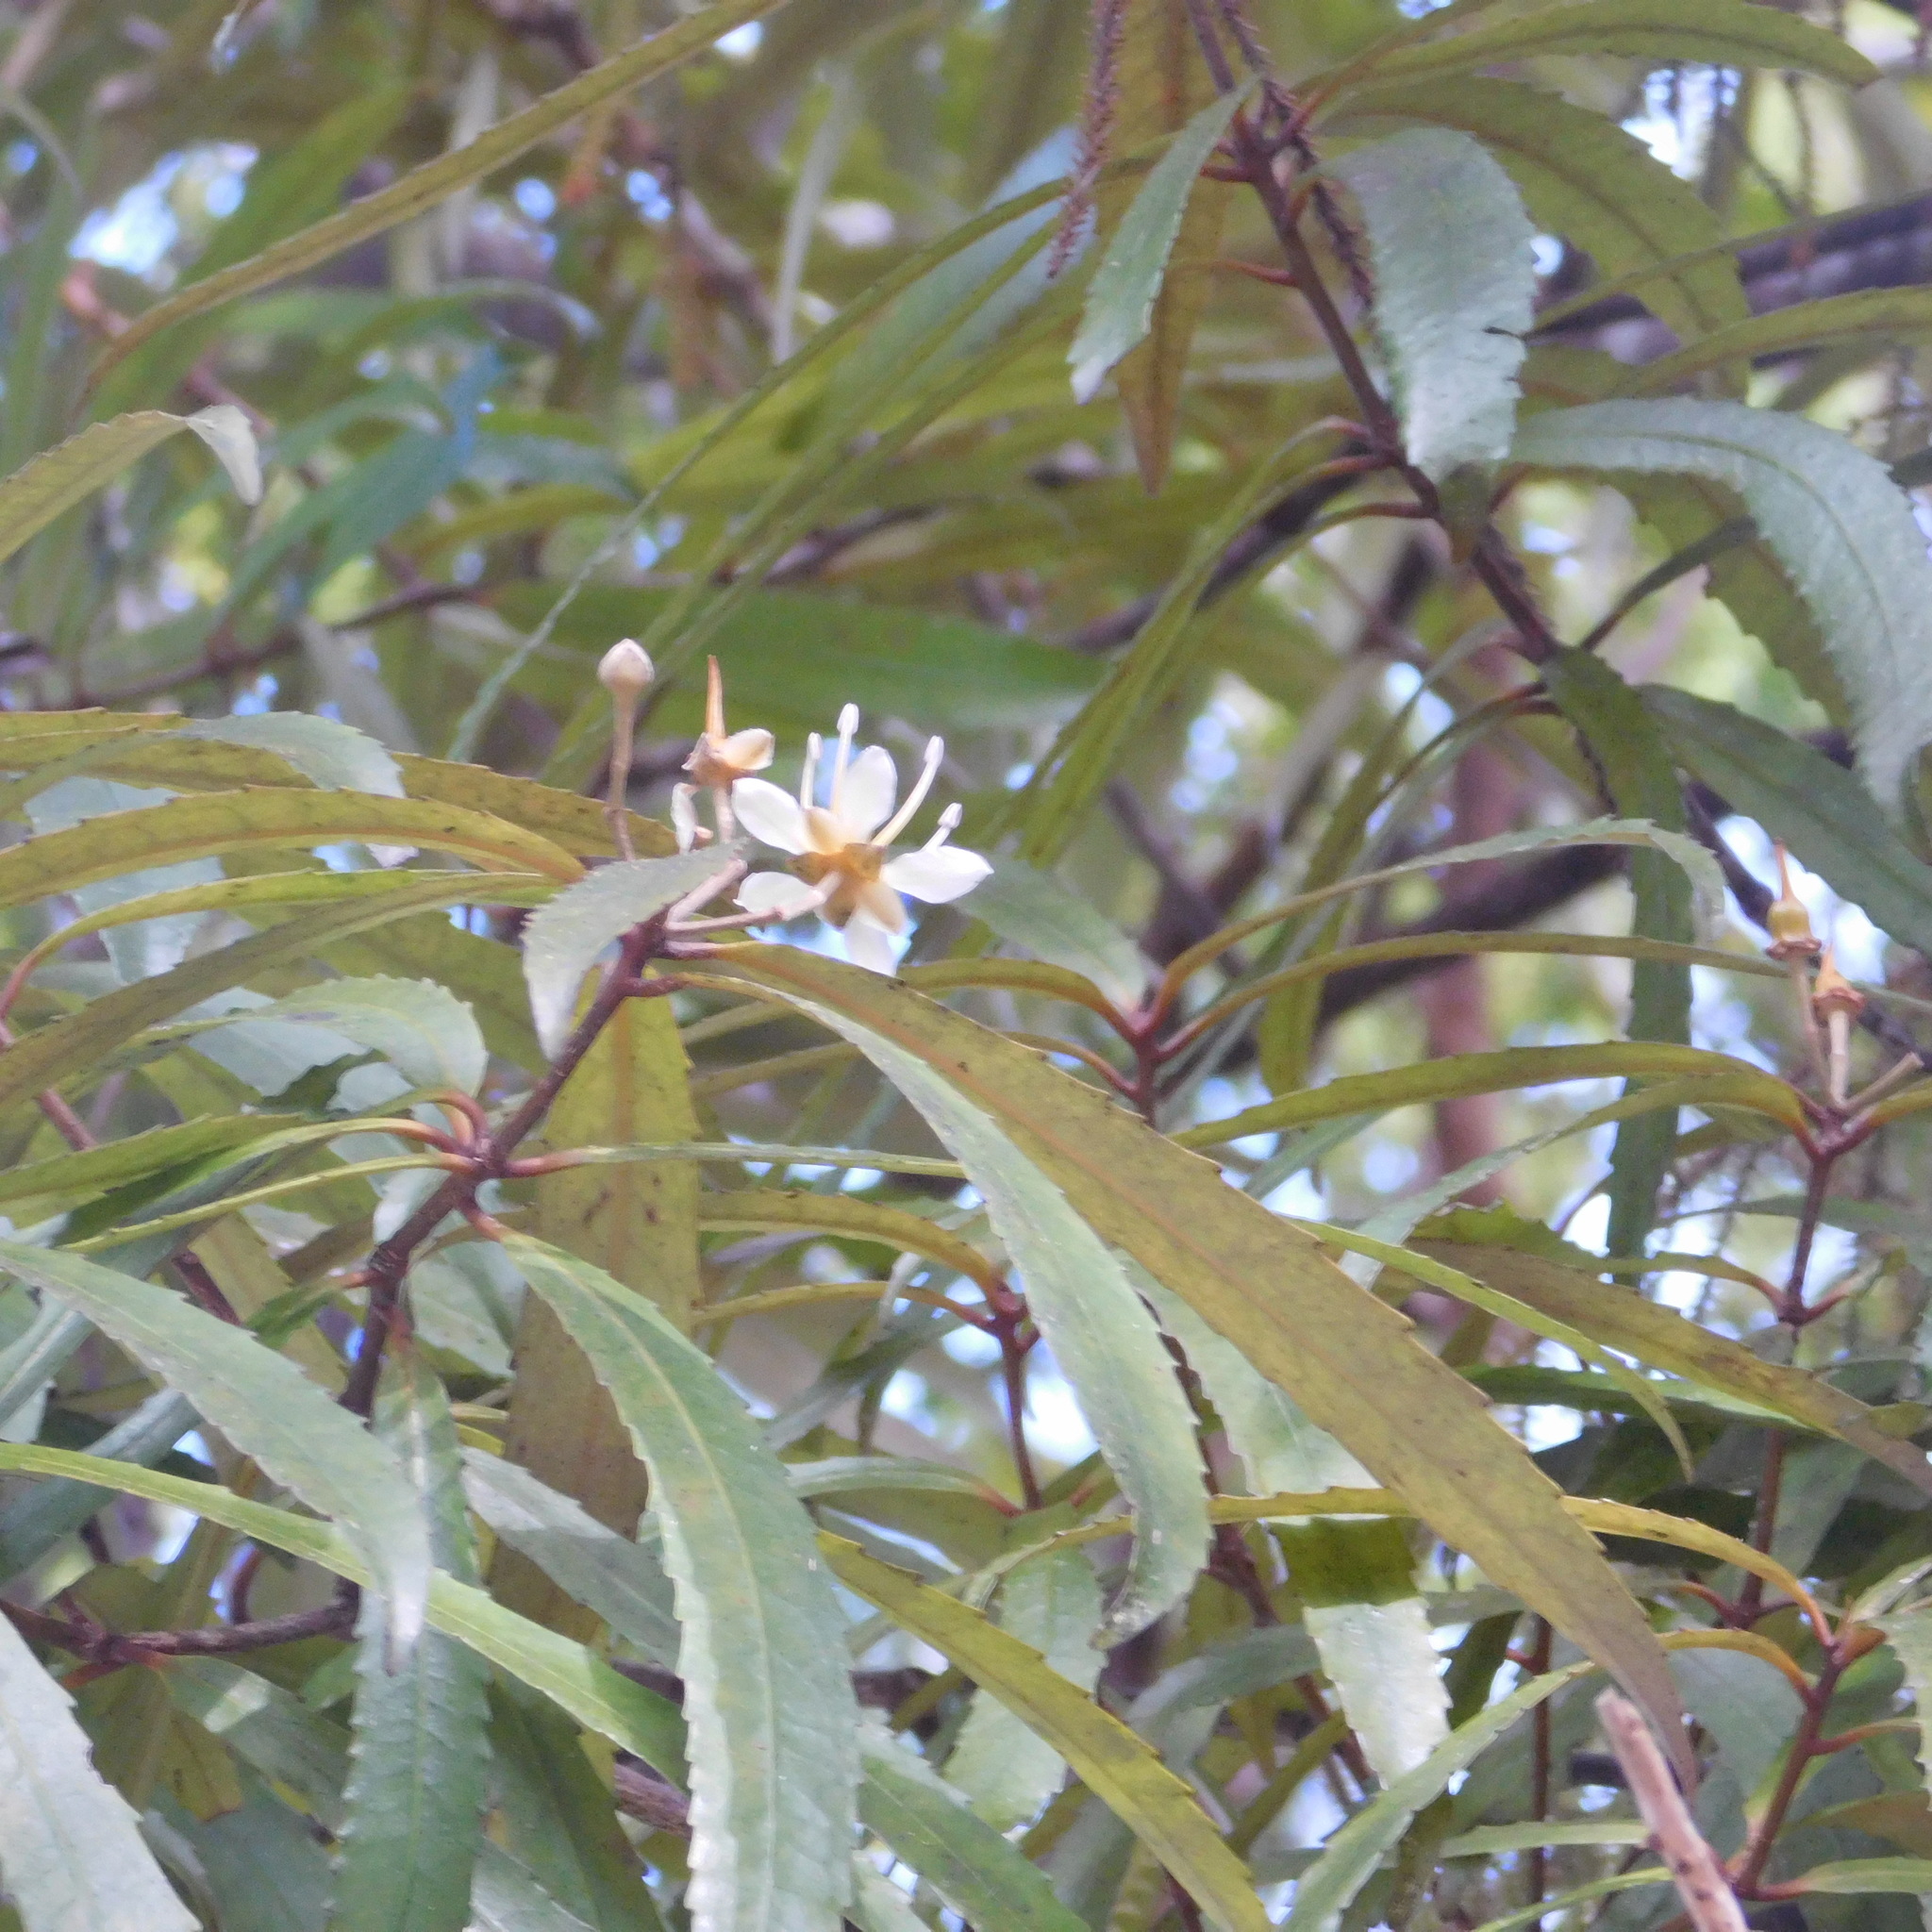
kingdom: Plantae
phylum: Tracheophyta
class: Magnoliopsida
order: Crossosomatales
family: Ixerbaceae
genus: Ixerba
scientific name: Ixerba brexioides
